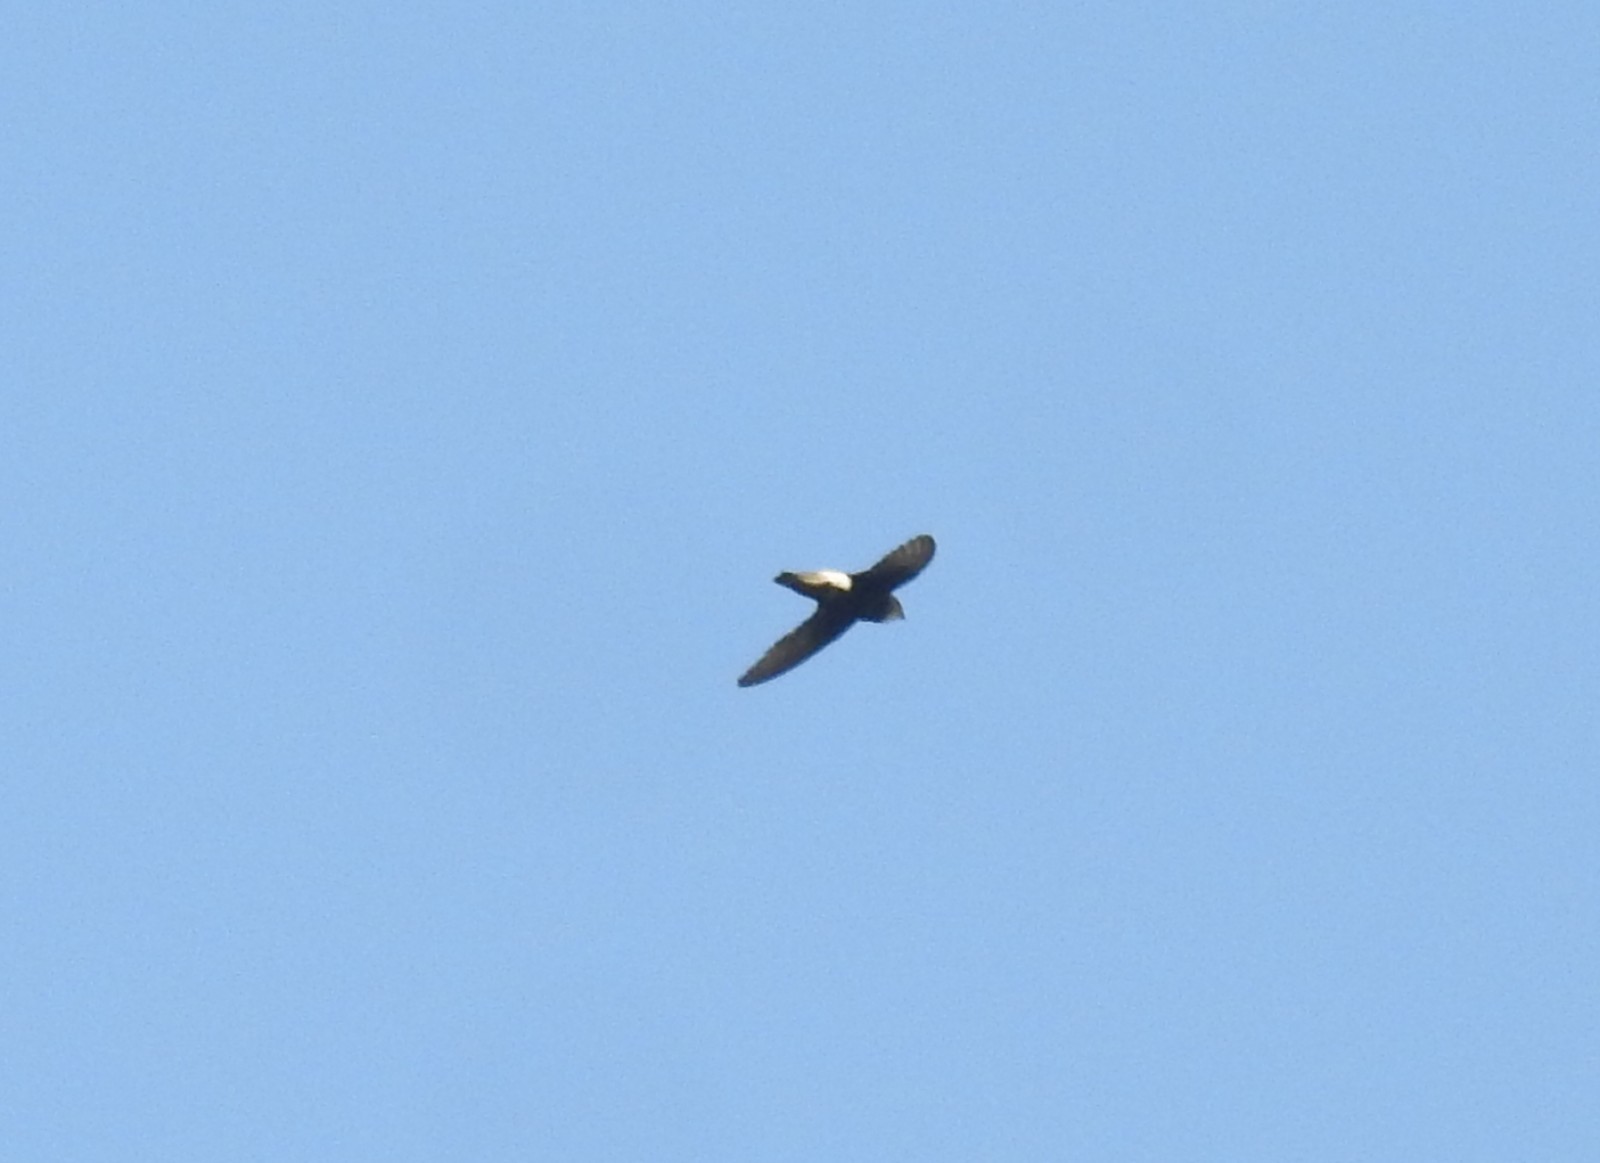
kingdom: Animalia
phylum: Chordata
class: Aves
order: Apodiformes
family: Apodidae
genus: Apus
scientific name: Apus affinis
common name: Little swift
